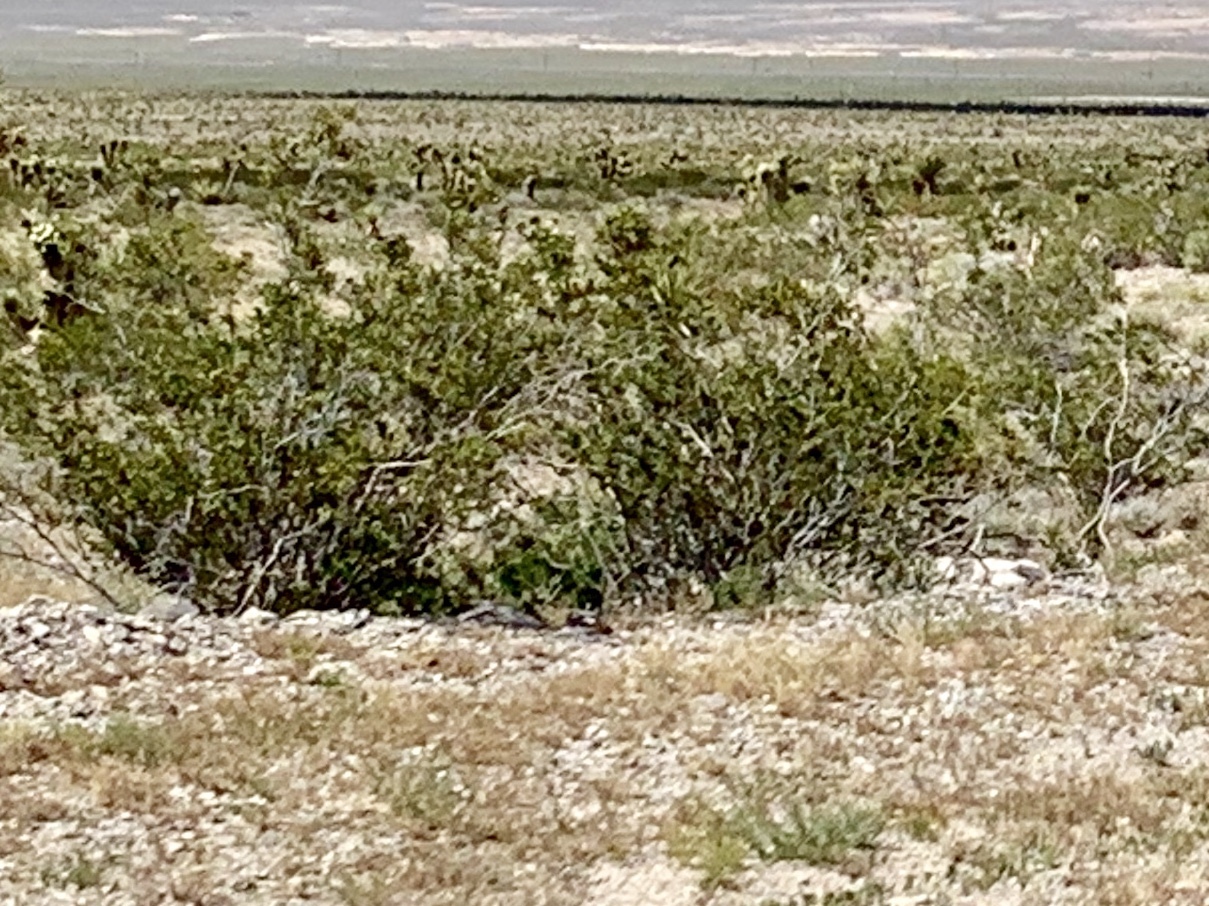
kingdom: Plantae
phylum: Tracheophyta
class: Magnoliopsida
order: Zygophyllales
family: Zygophyllaceae
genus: Larrea
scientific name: Larrea tridentata
